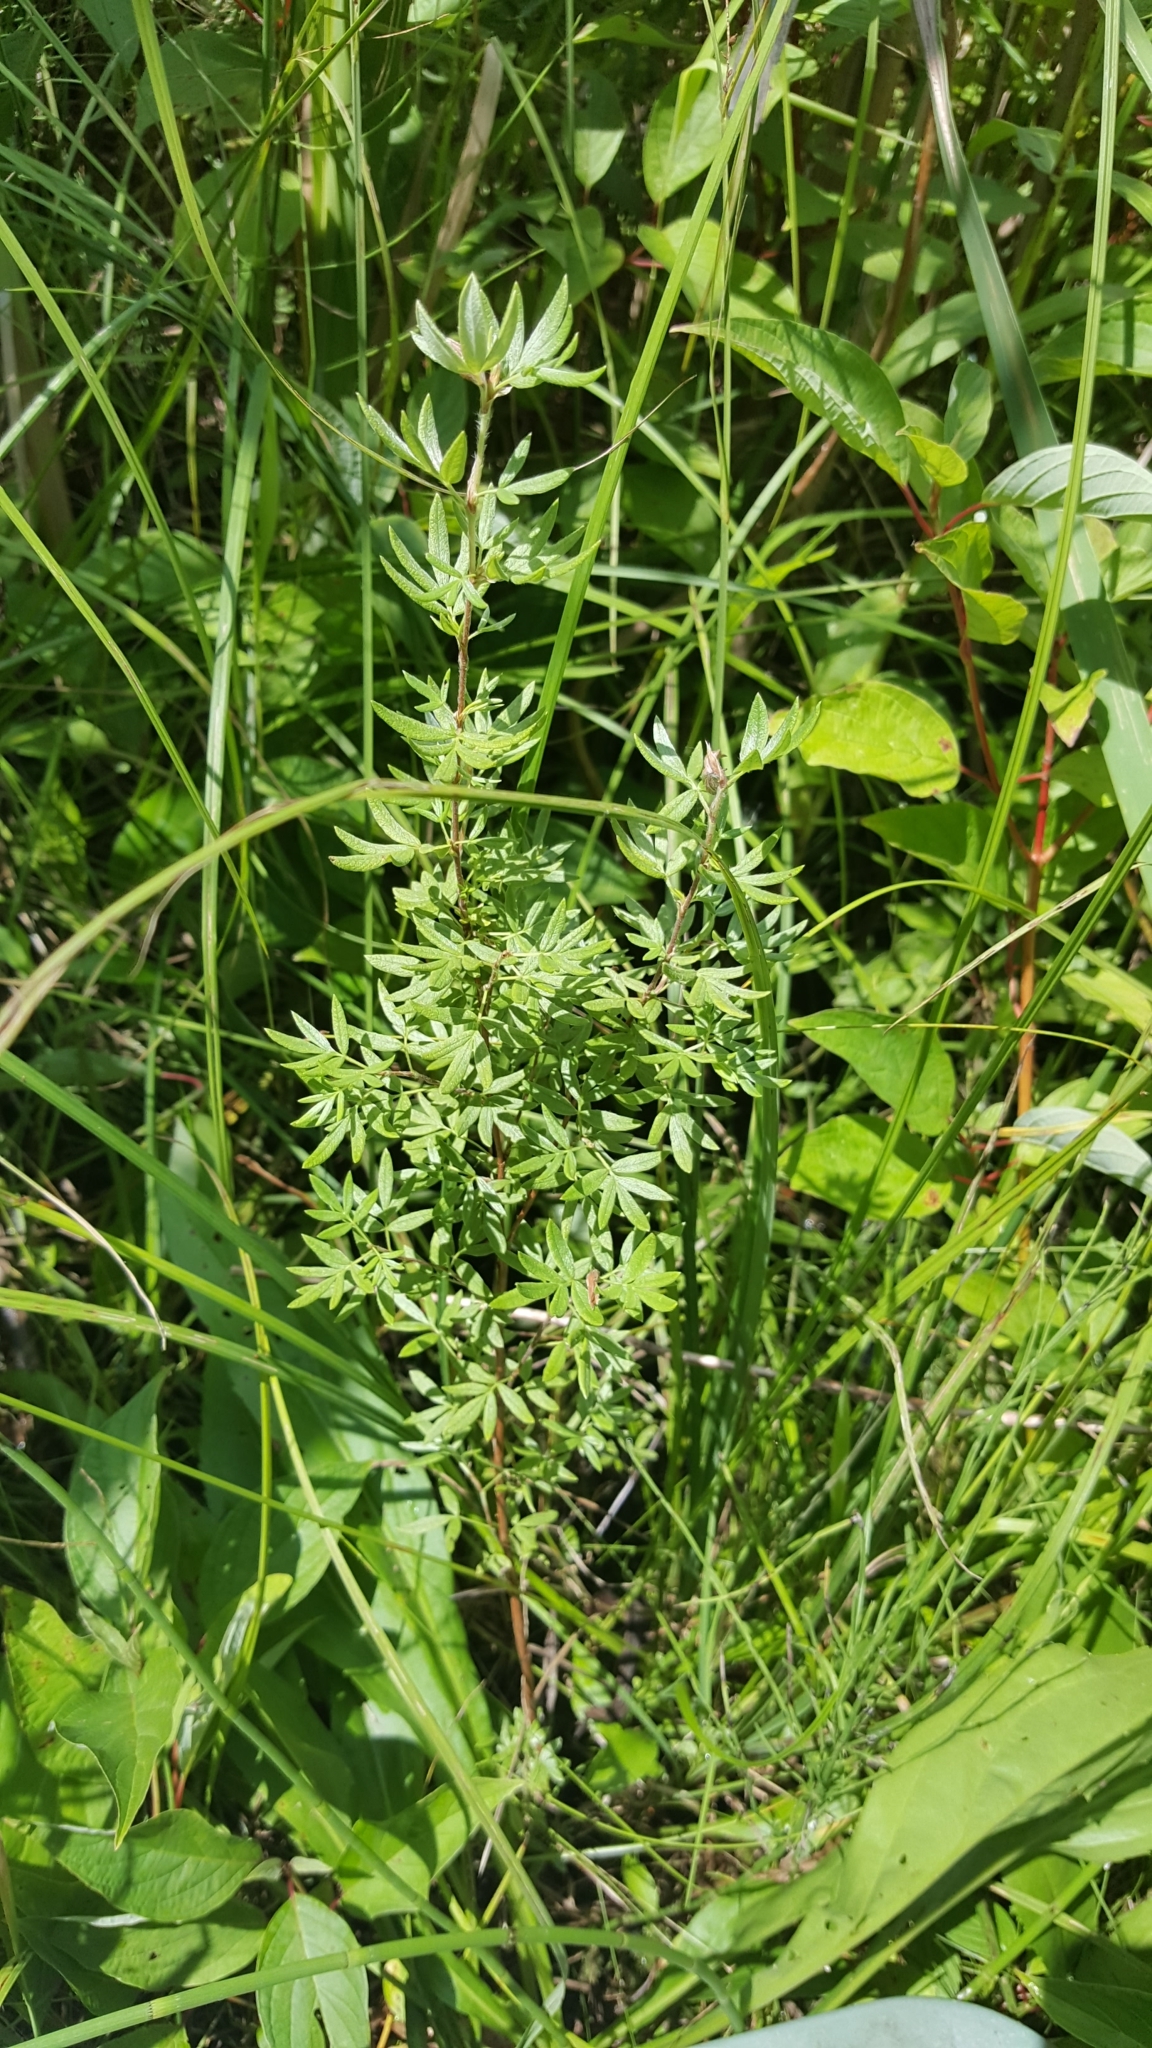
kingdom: Plantae
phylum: Tracheophyta
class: Magnoliopsida
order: Rosales
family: Rosaceae
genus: Dasiphora
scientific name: Dasiphora fruticosa
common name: Shrubby cinquefoil
